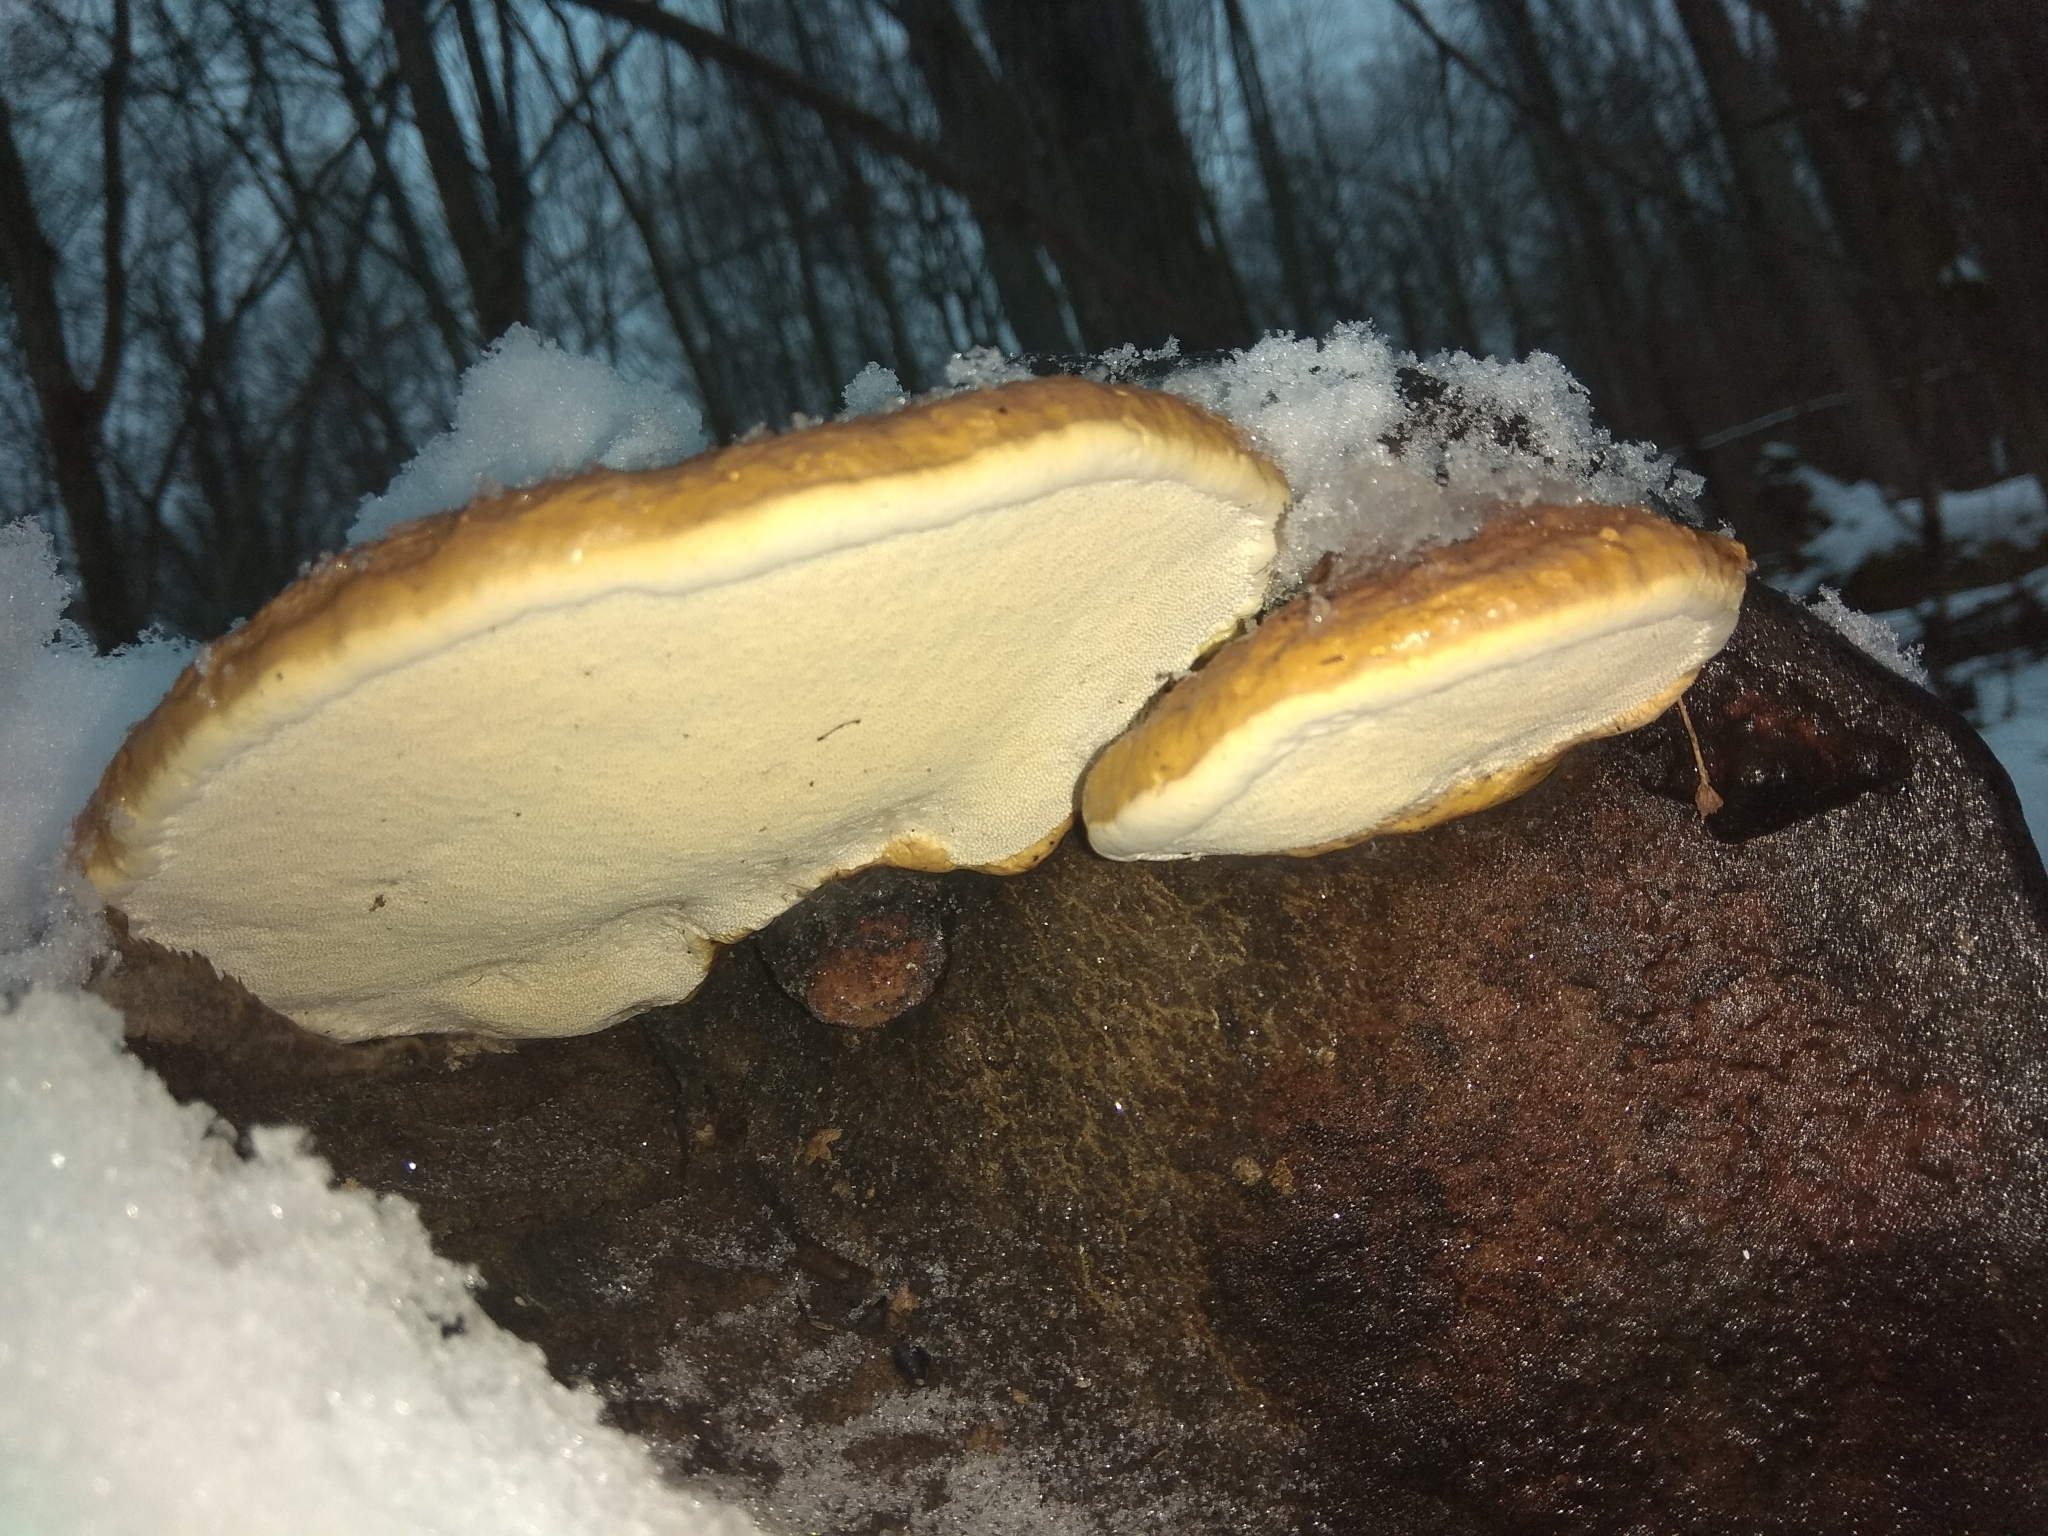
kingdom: Fungi
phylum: Basidiomycota
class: Agaricomycetes
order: Polyporales
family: Fomitopsidaceae
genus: Fomitopsis
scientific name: Fomitopsis pinicola
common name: Red-belted bracket
